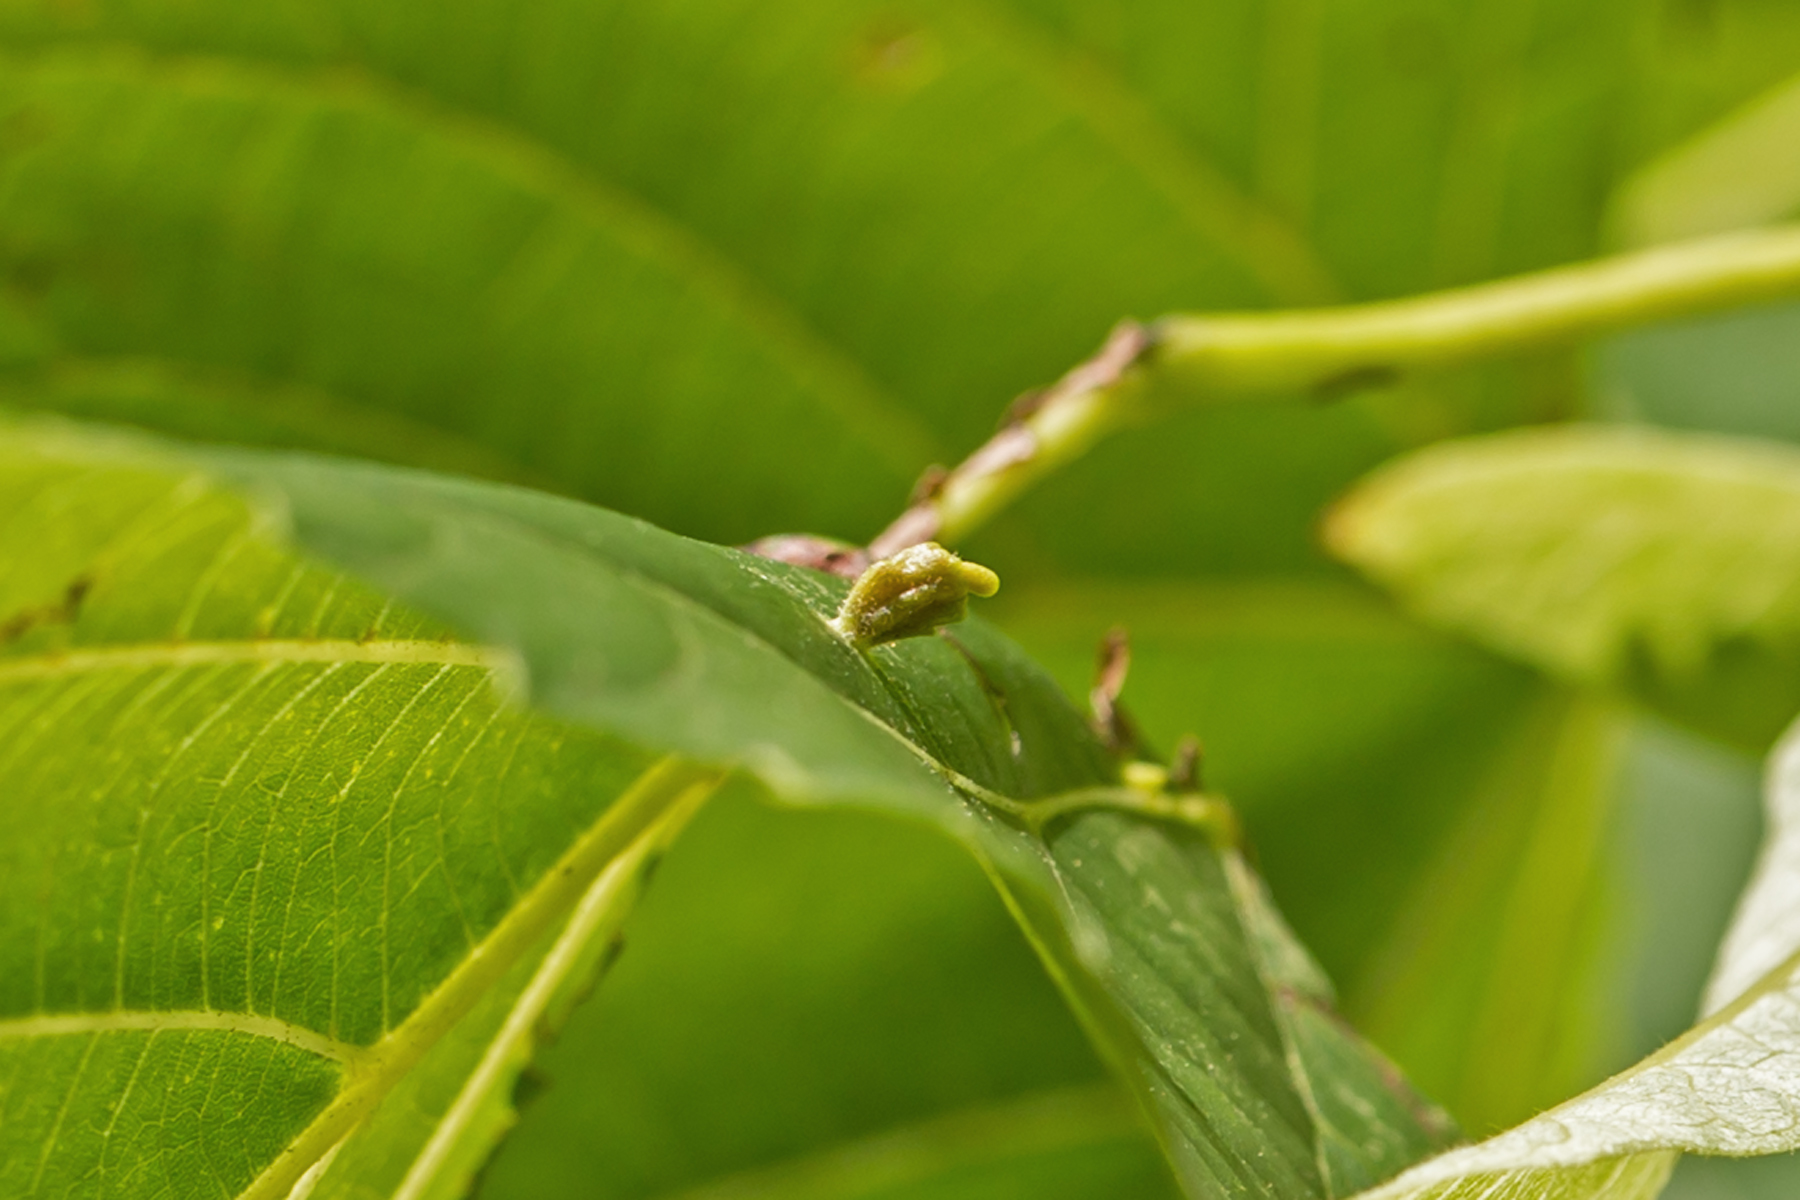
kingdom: Animalia
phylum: Arthropoda
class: Arachnida
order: Trombidiformes
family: Eriophyidae
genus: Eriophyes
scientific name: Eriophyes tiliae
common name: Red nail gall mite
